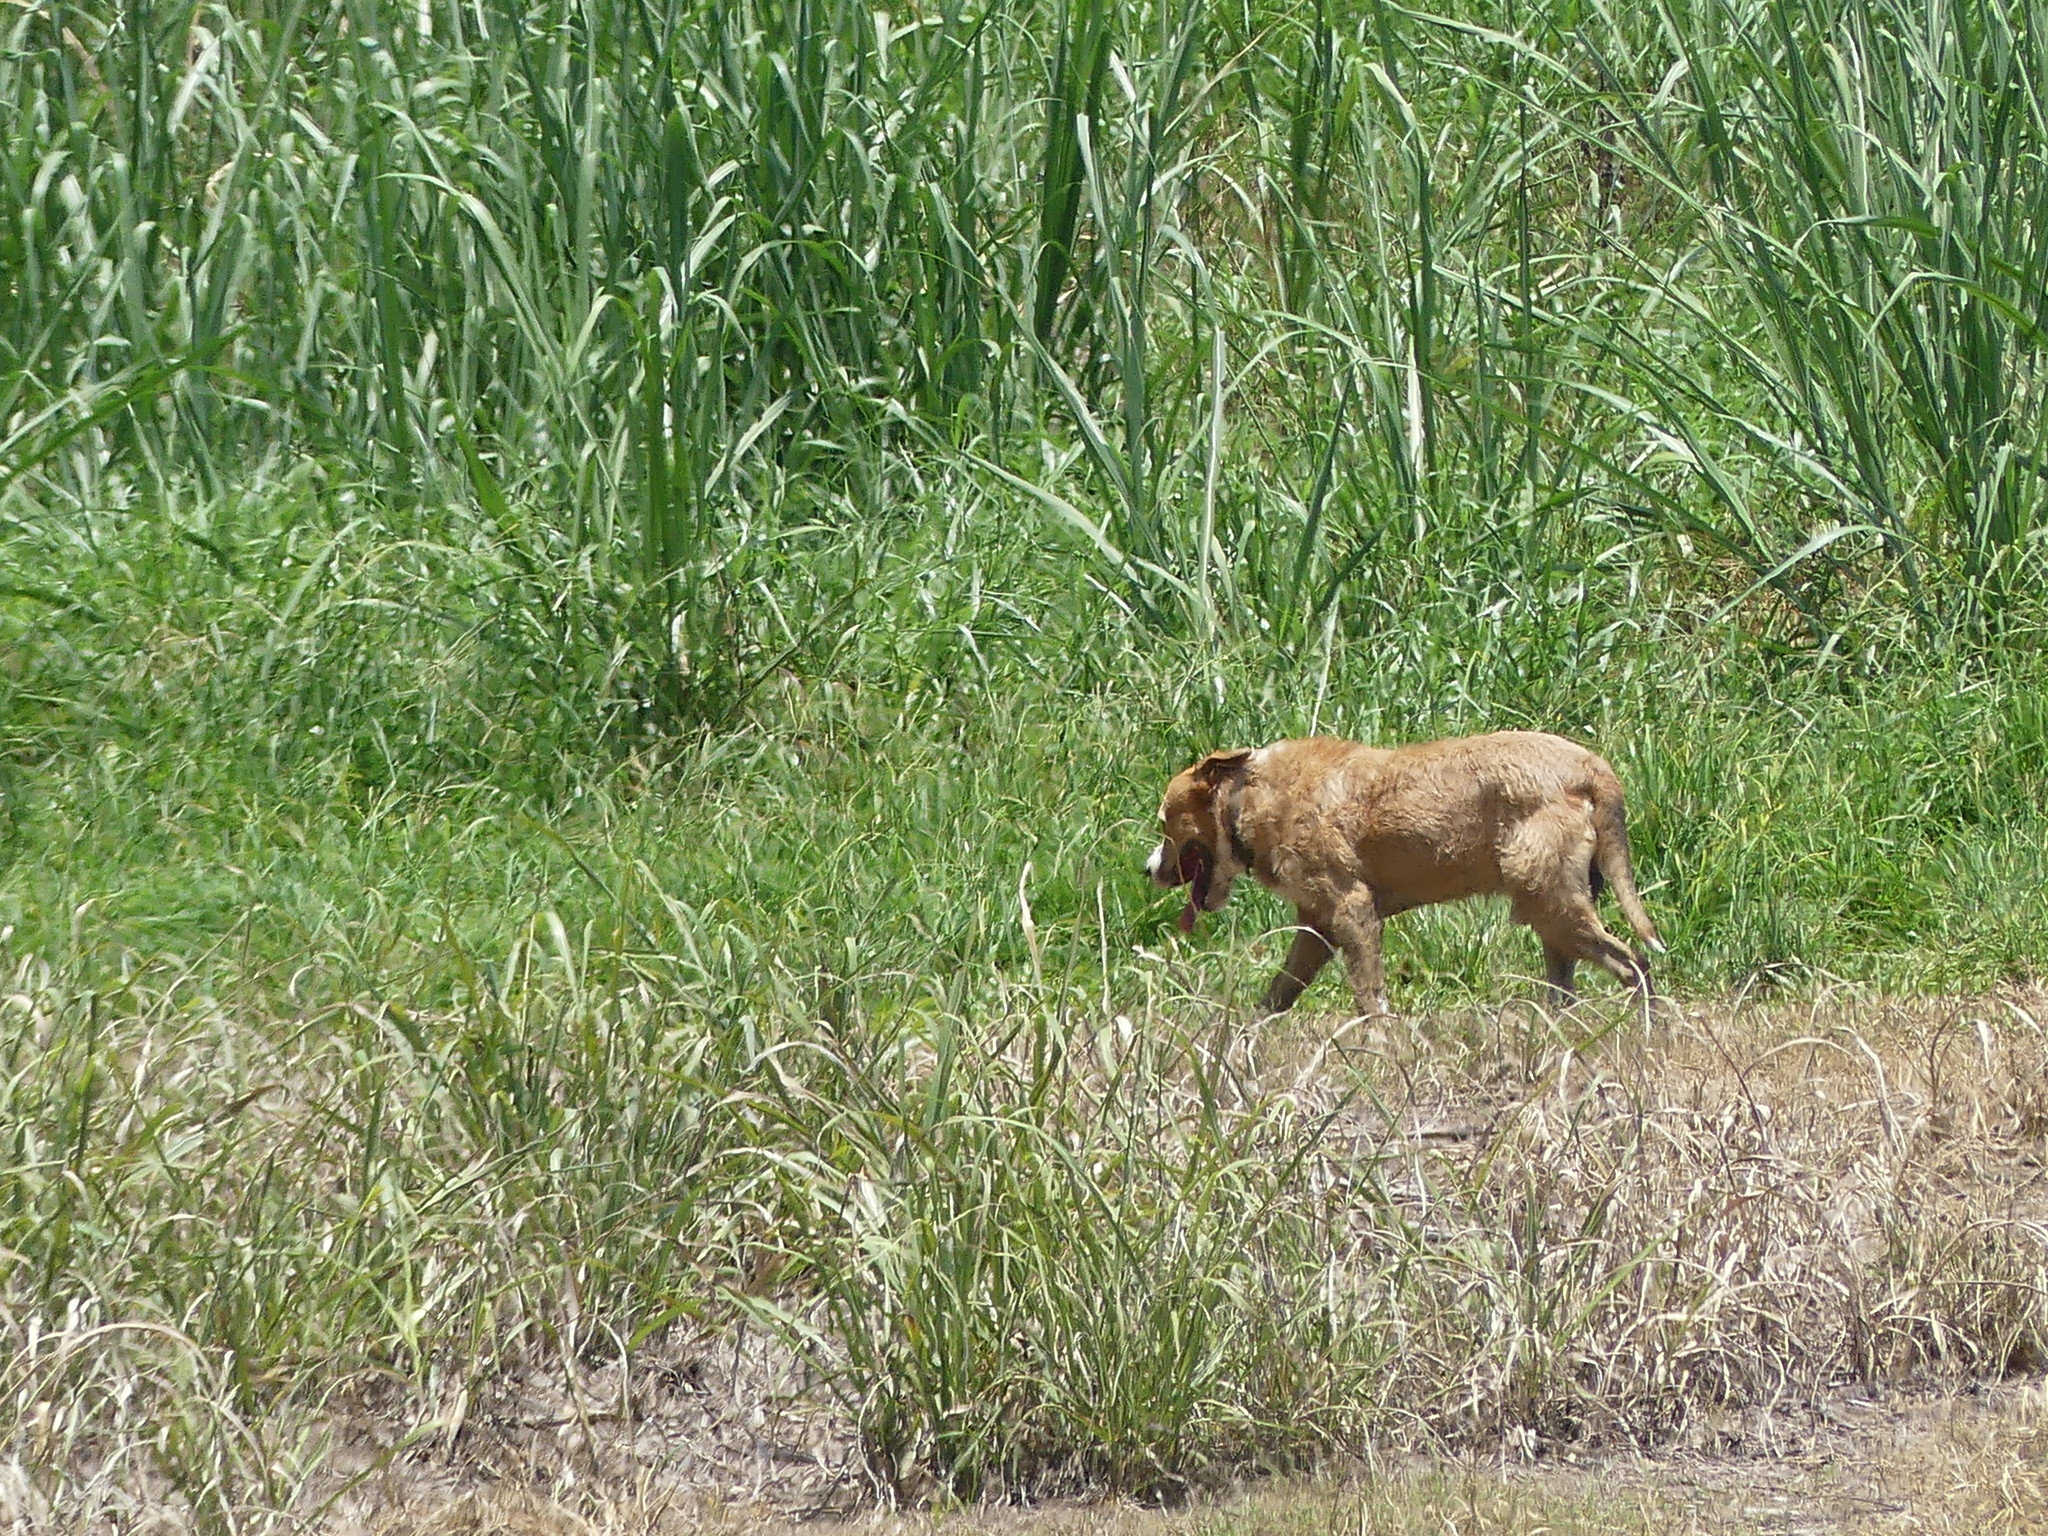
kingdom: Animalia
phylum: Chordata
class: Mammalia
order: Carnivora
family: Canidae
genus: Canis
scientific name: Canis lupus
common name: Gray wolf
